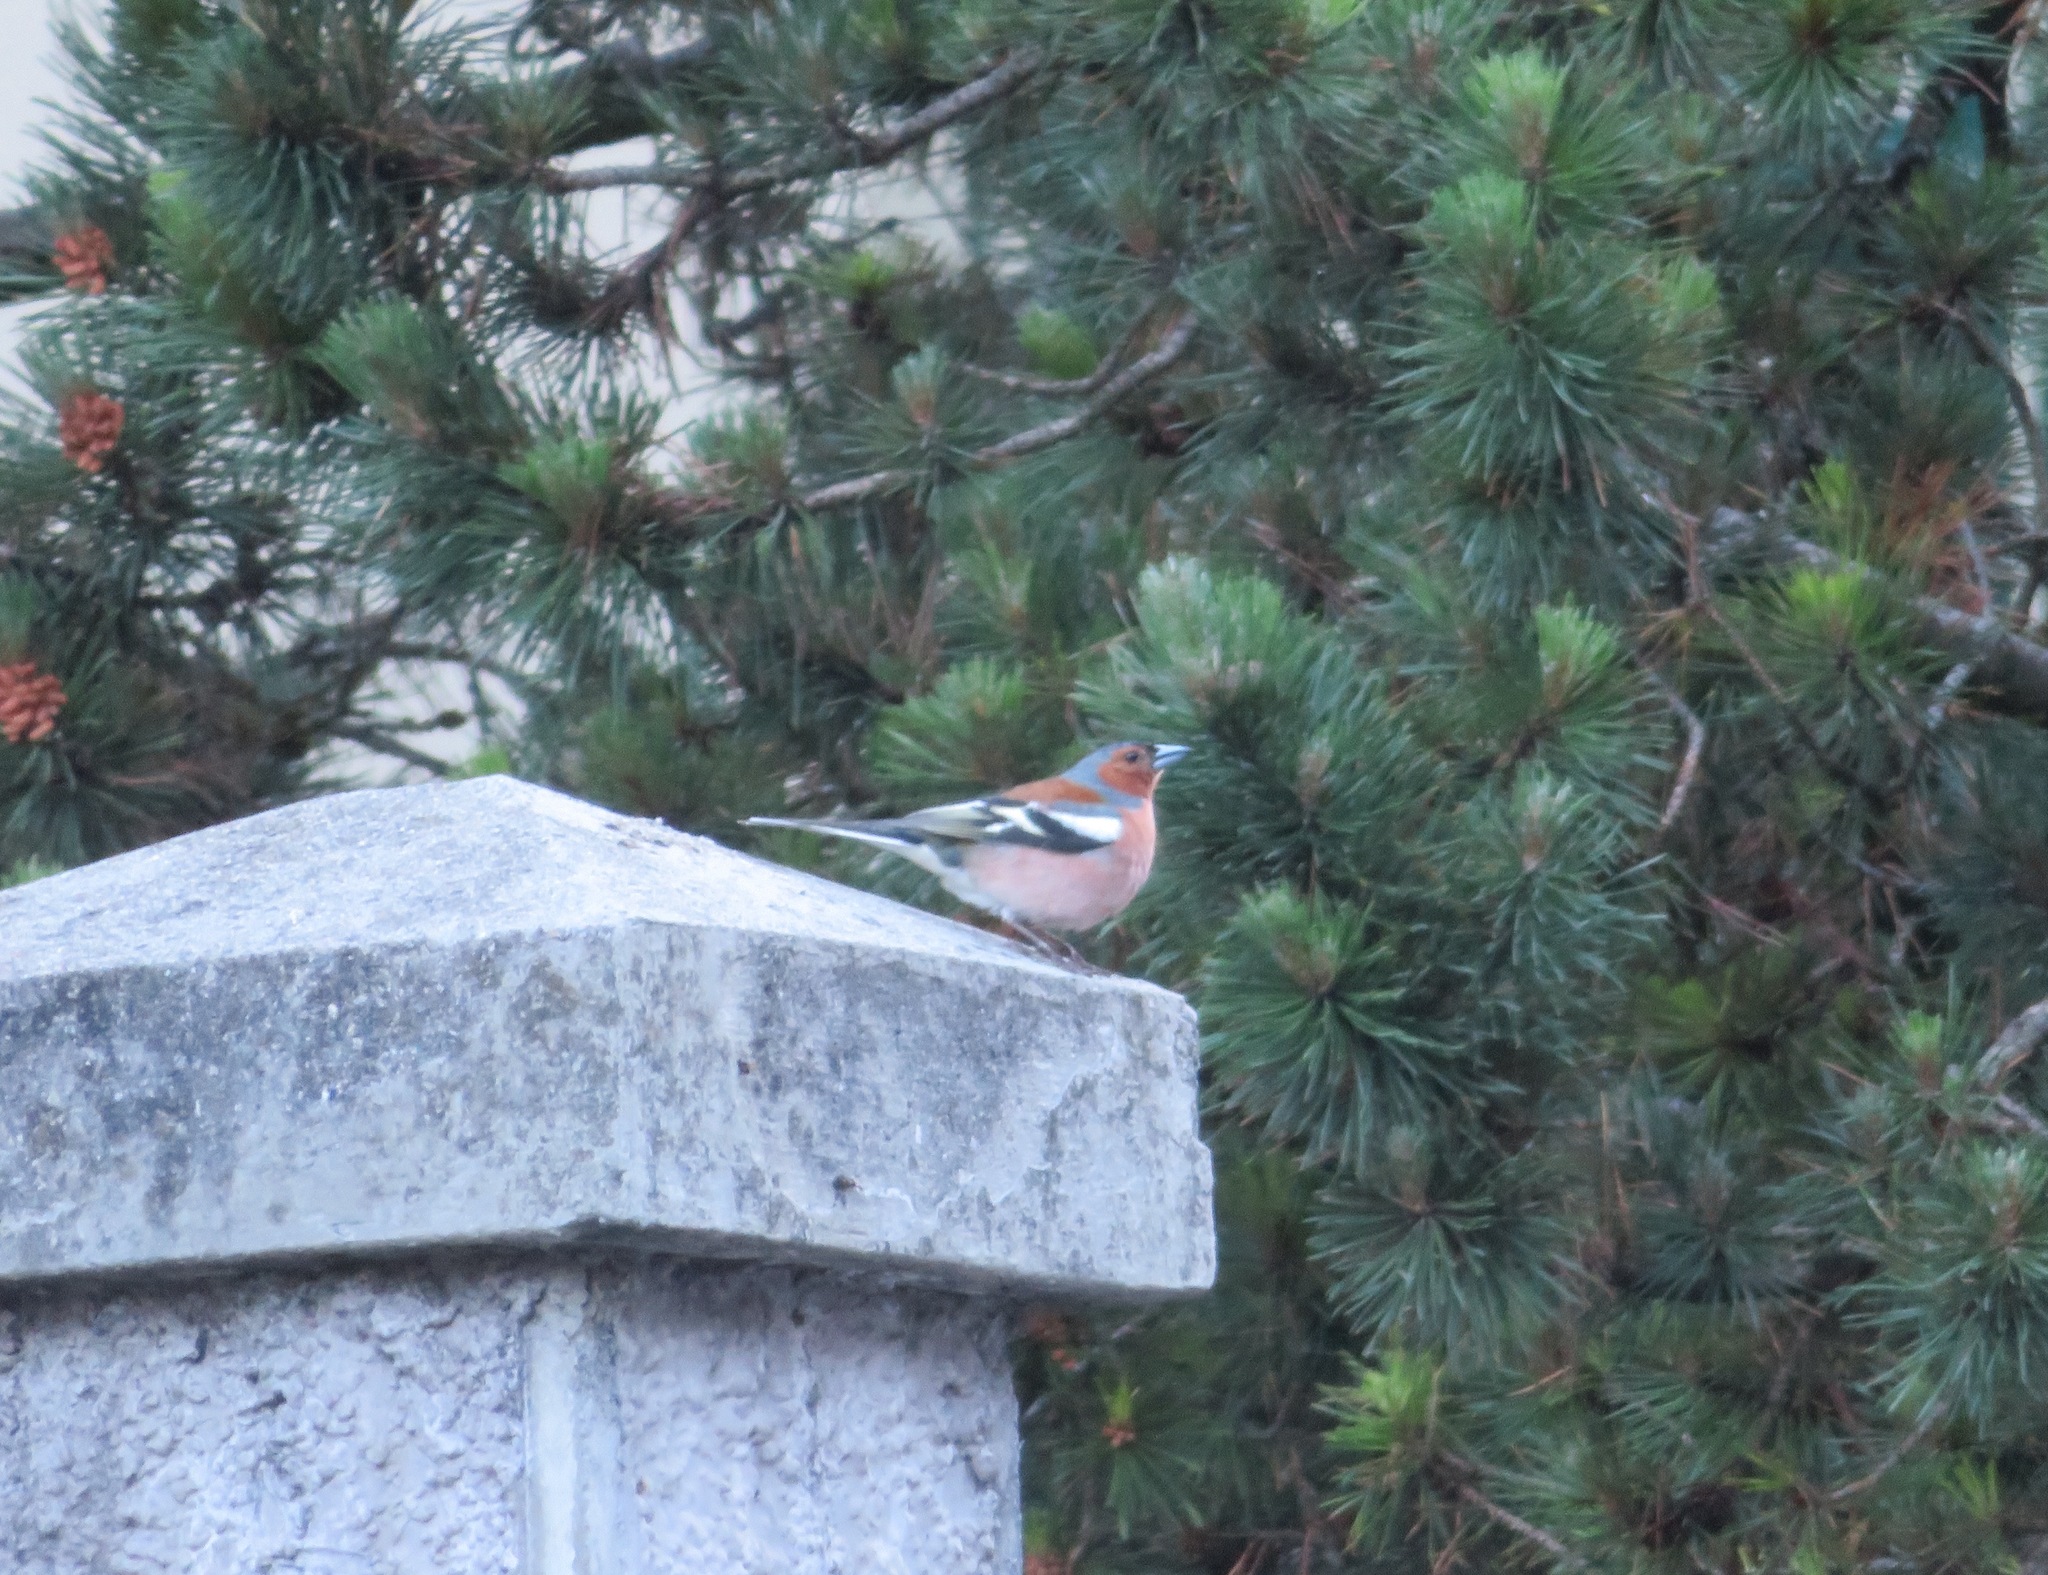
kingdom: Animalia
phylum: Chordata
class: Aves
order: Passeriformes
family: Fringillidae
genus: Fringilla
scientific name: Fringilla coelebs
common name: Common chaffinch
